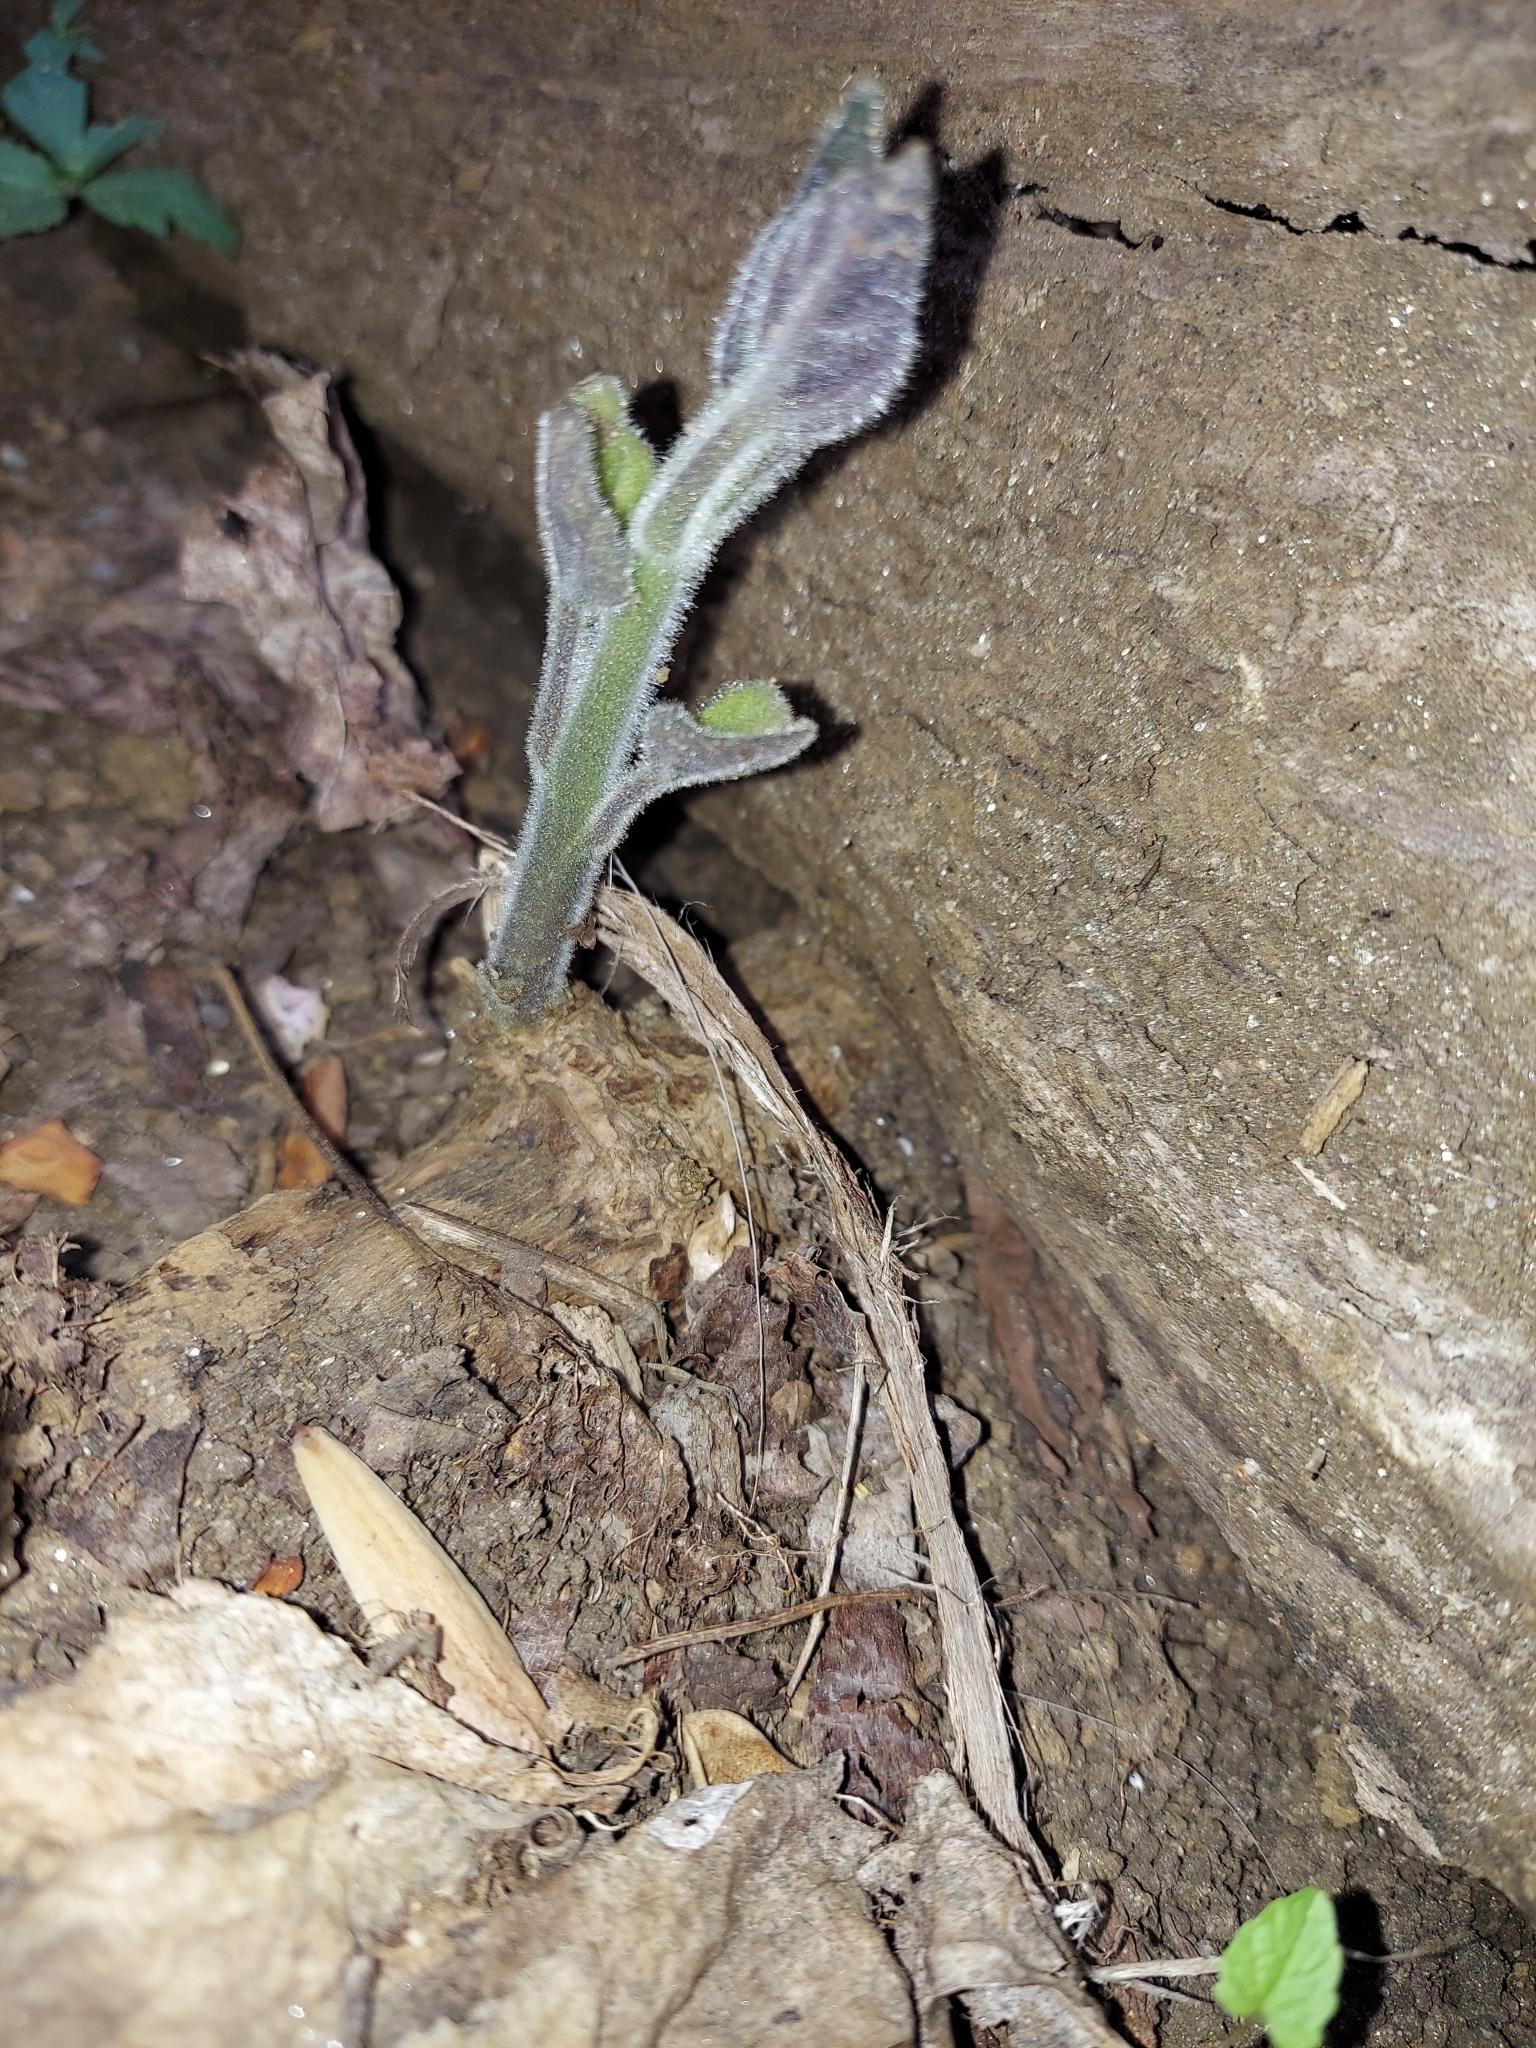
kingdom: Plantae
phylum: Tracheophyta
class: Magnoliopsida
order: Lamiales
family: Paulowniaceae
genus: Paulownia
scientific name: Paulownia tomentosa
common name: Foxglove-tree
